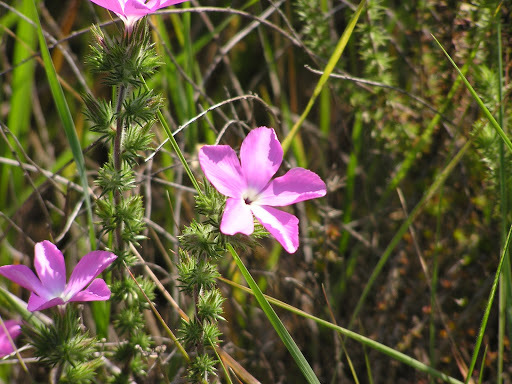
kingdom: Plantae
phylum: Tracheophyta
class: Magnoliopsida
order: Ericales
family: Polemoniaceae
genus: Linanthus
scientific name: Linanthus californicus
